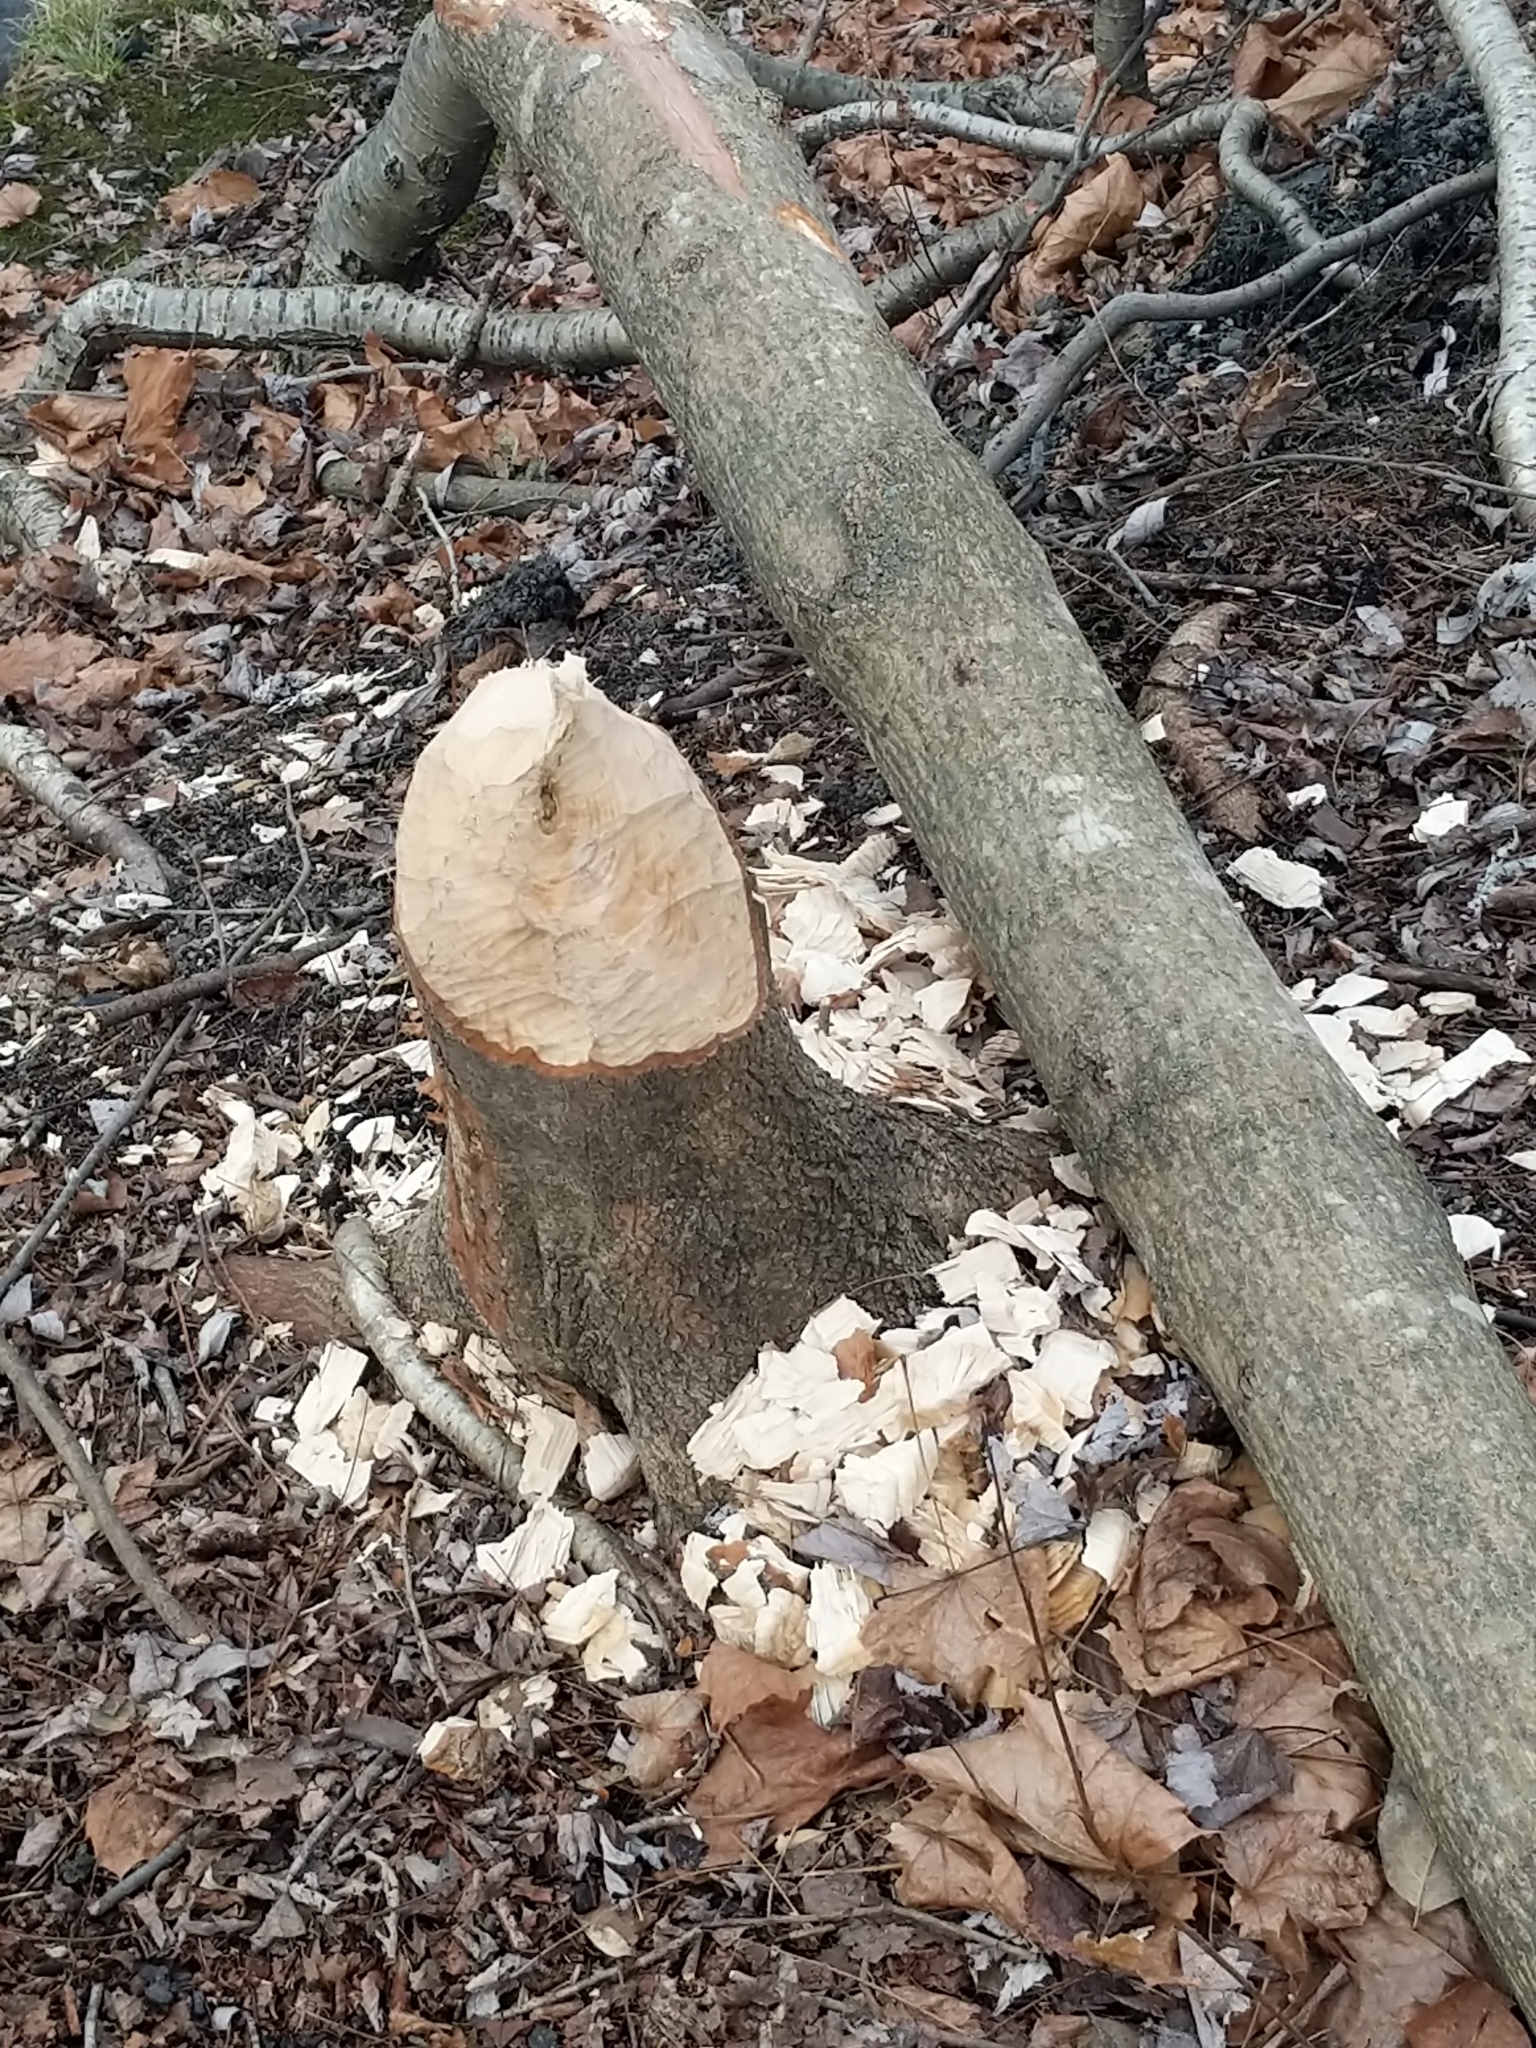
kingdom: Animalia
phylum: Chordata
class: Mammalia
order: Rodentia
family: Castoridae
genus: Castor
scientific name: Castor canadensis
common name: American beaver
